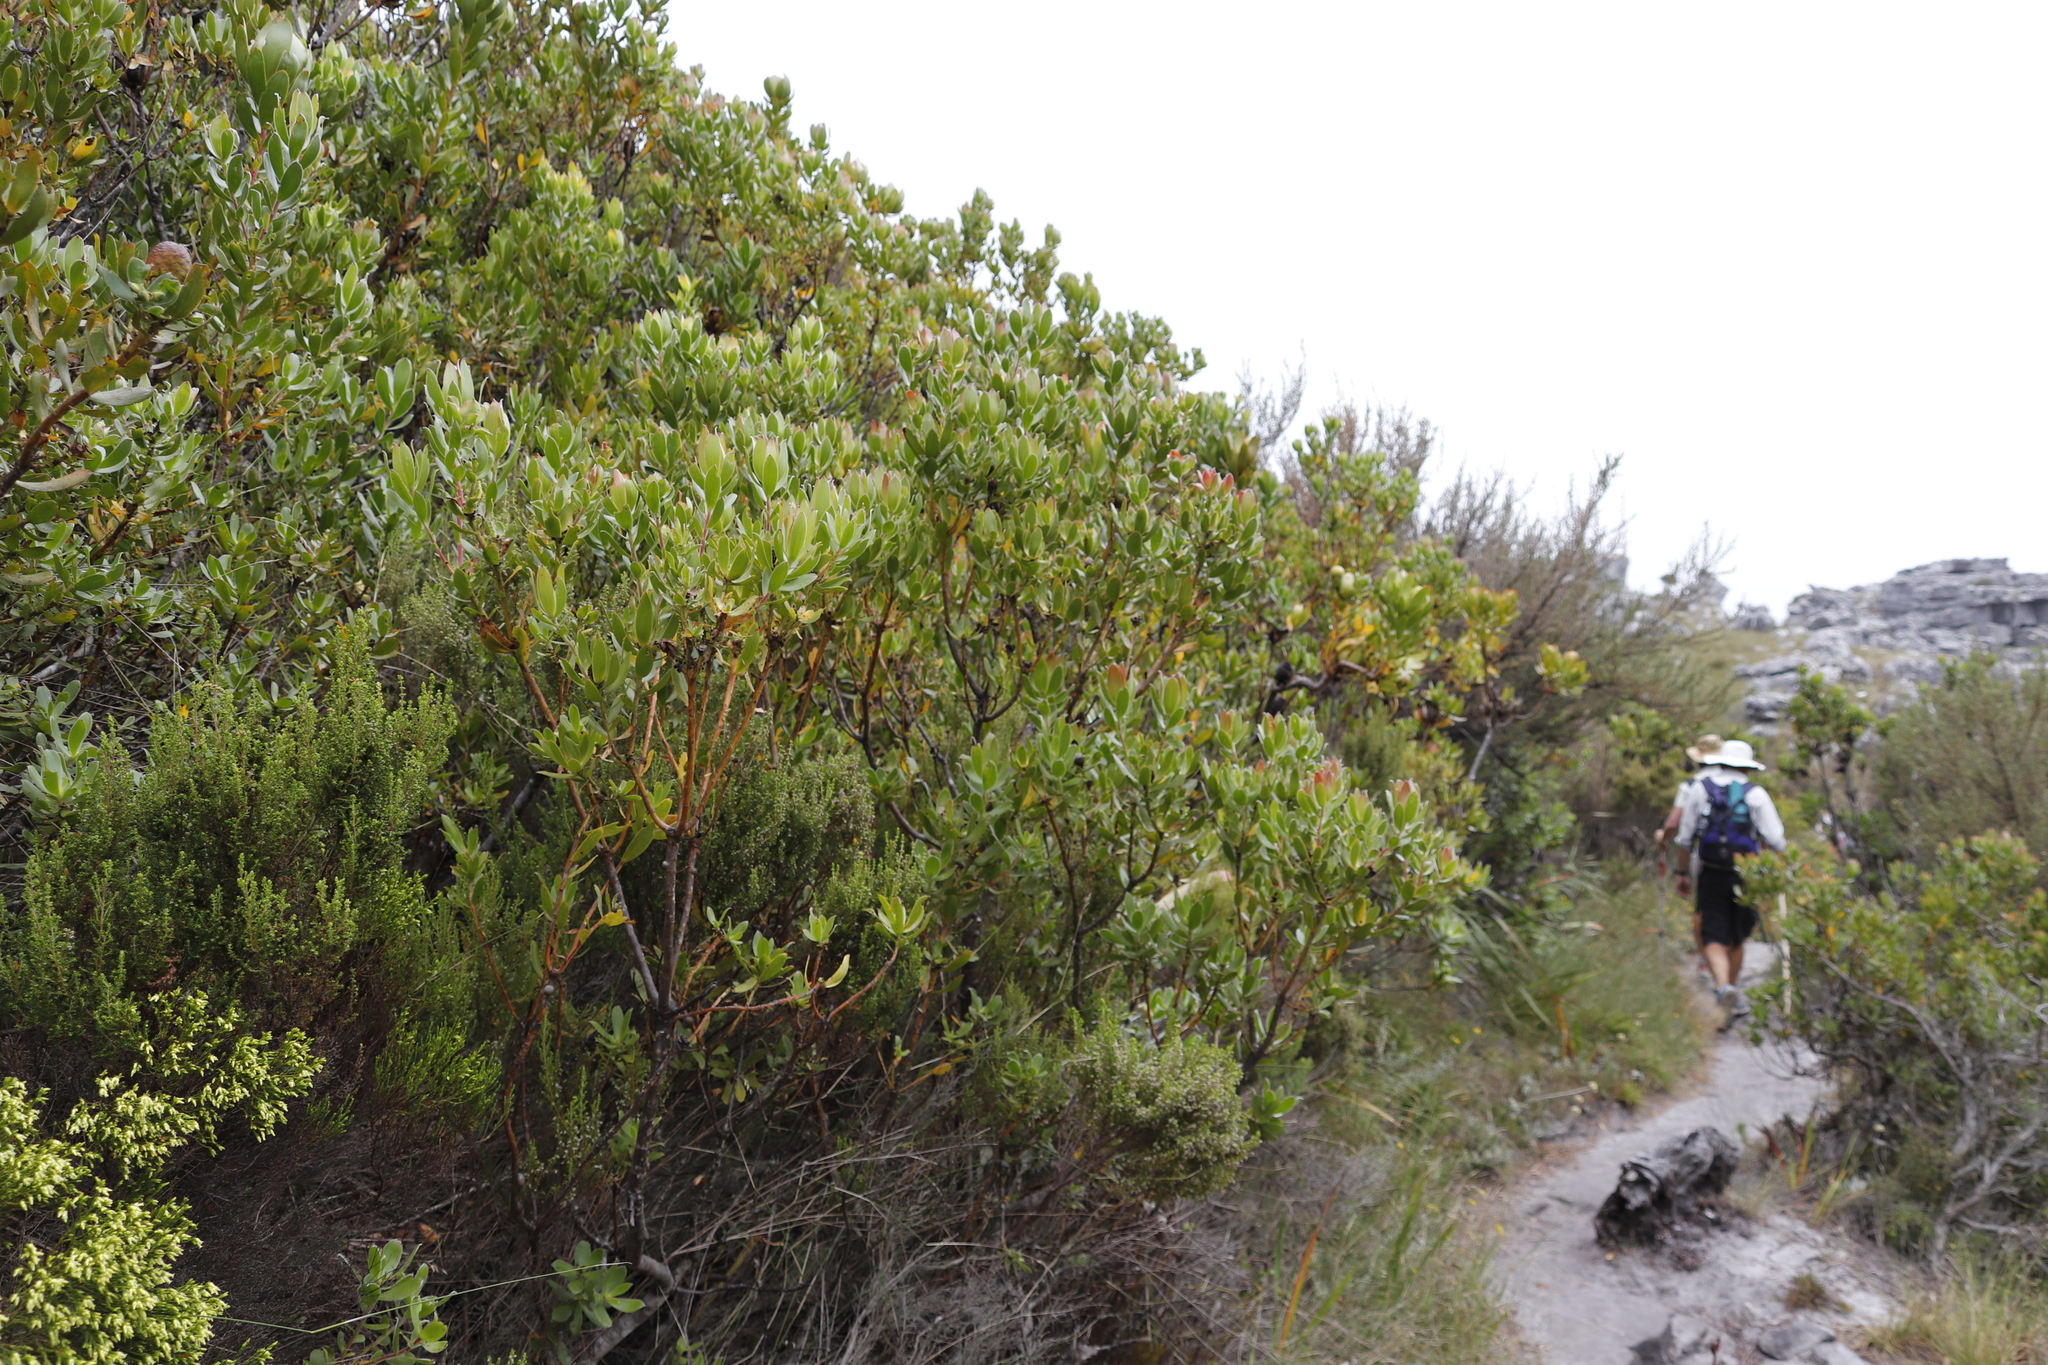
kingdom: Plantae
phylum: Tracheophyta
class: Magnoliopsida
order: Proteales
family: Proteaceae
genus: Leucadendron
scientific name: Leucadendron strobilinum
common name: Mountain rose
